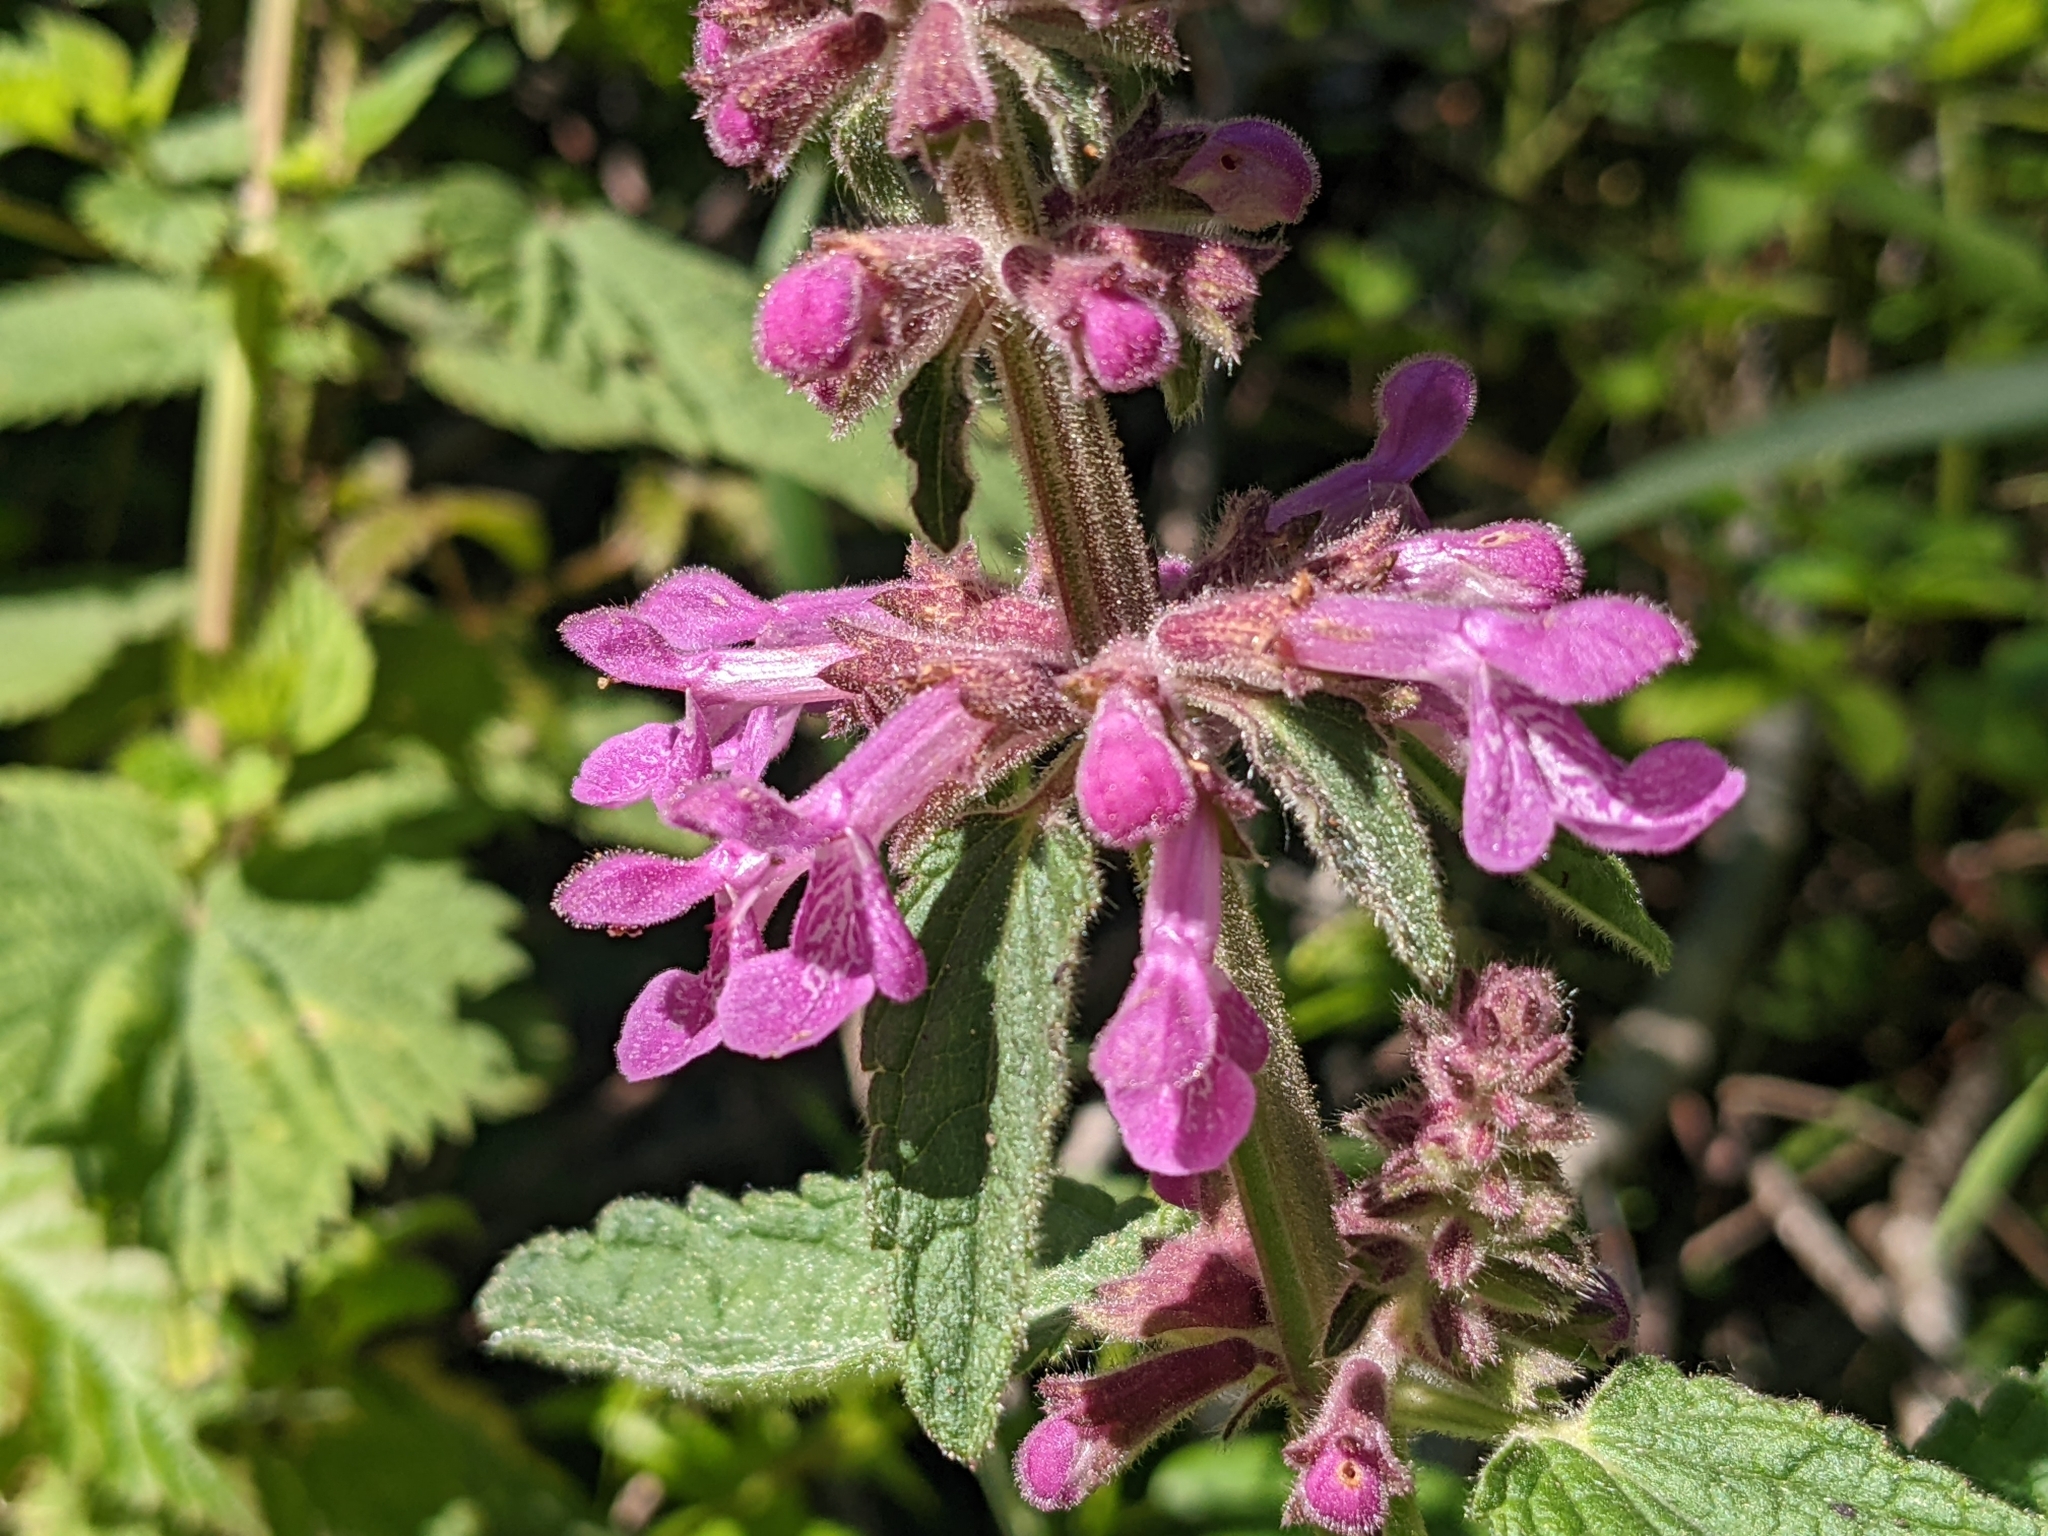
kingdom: Plantae
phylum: Tracheophyta
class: Magnoliopsida
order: Lamiales
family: Lamiaceae
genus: Stachys
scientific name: Stachys chamissonis
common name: Coastal hedge-nettle
